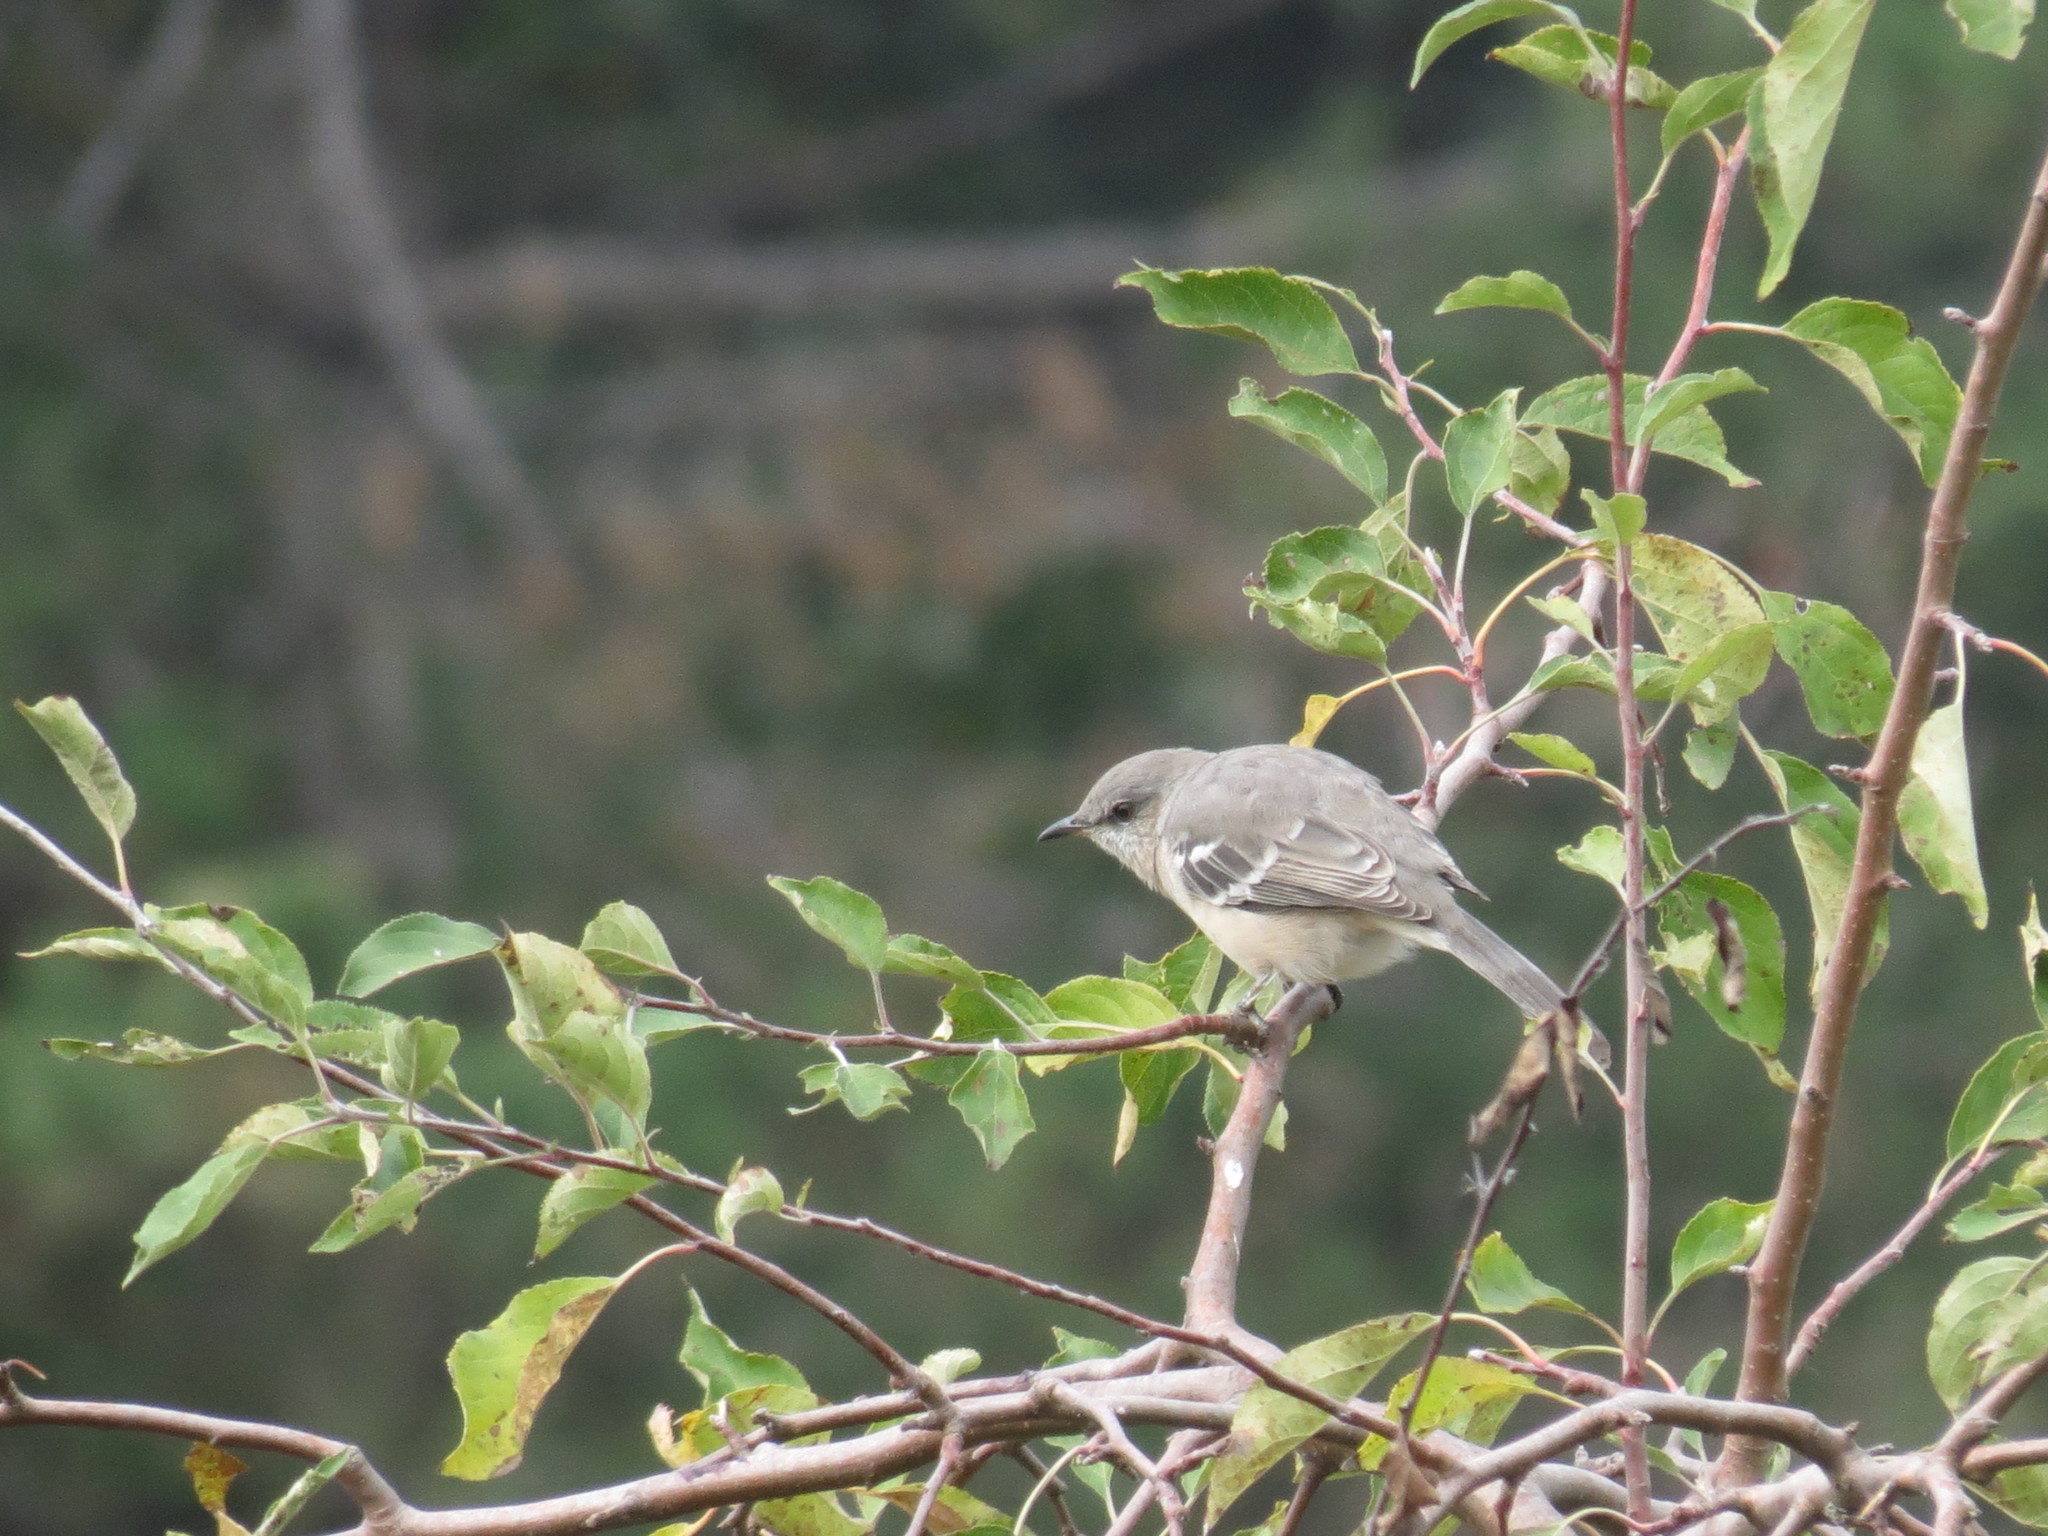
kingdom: Animalia
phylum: Chordata
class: Aves
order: Passeriformes
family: Mimidae
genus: Mimus
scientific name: Mimus polyglottos
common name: Northern mockingbird
